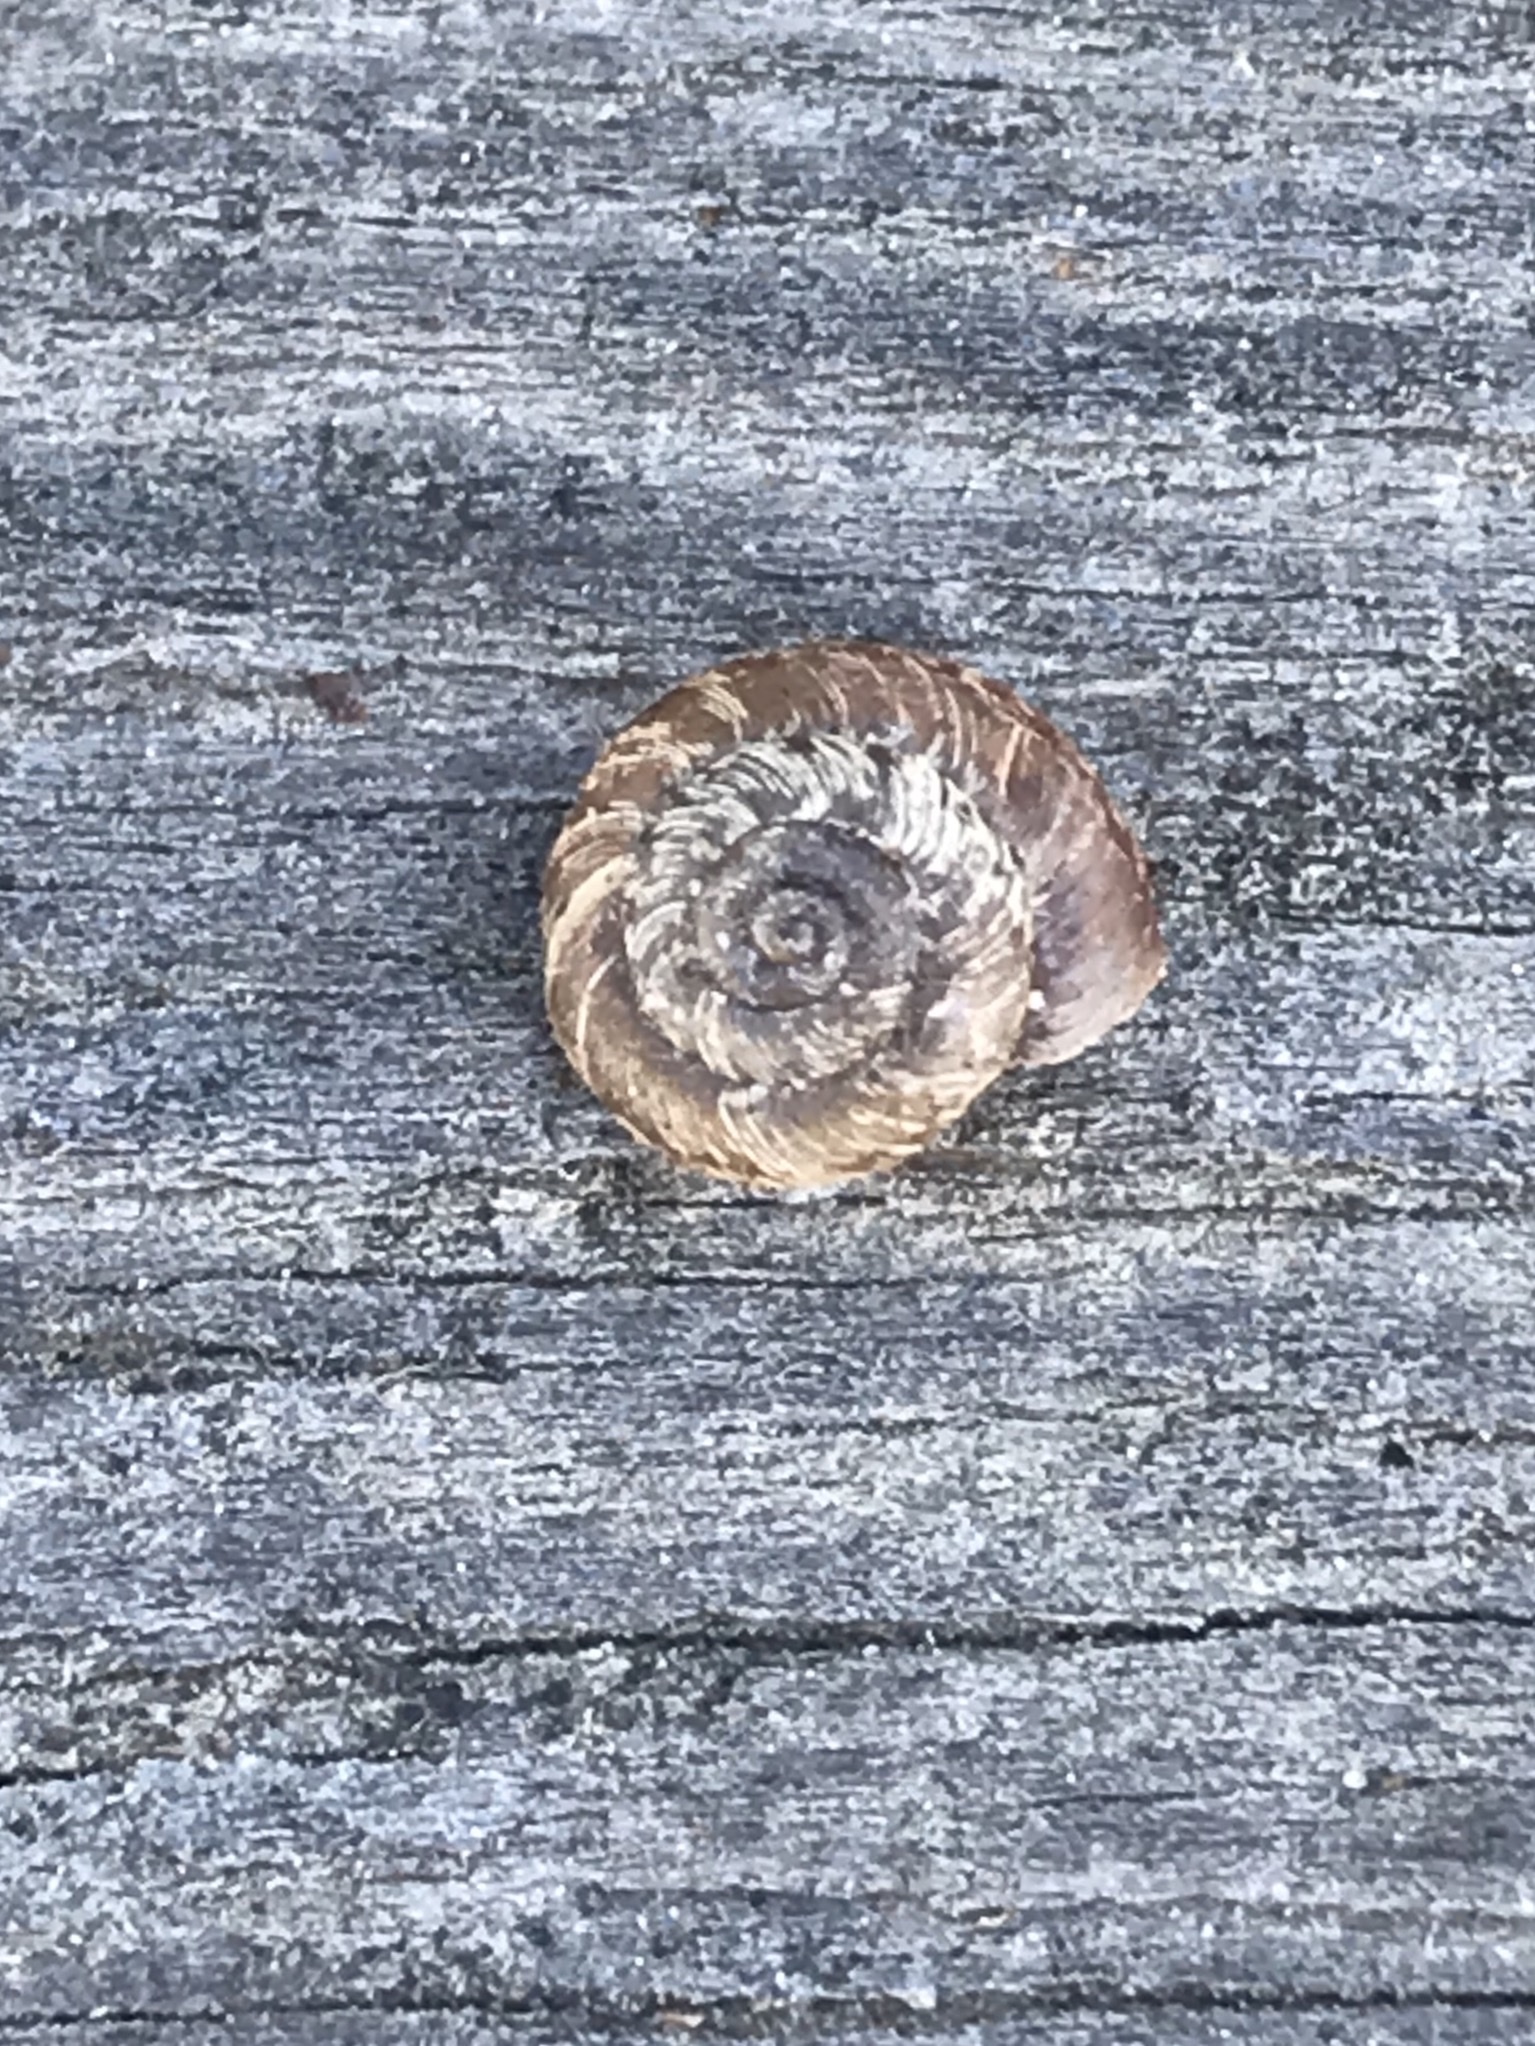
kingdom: Animalia
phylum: Mollusca
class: Gastropoda
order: Stylommatophora
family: Geomitridae
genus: Xerotricha
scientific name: Xerotricha conspurcata
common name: Snail
